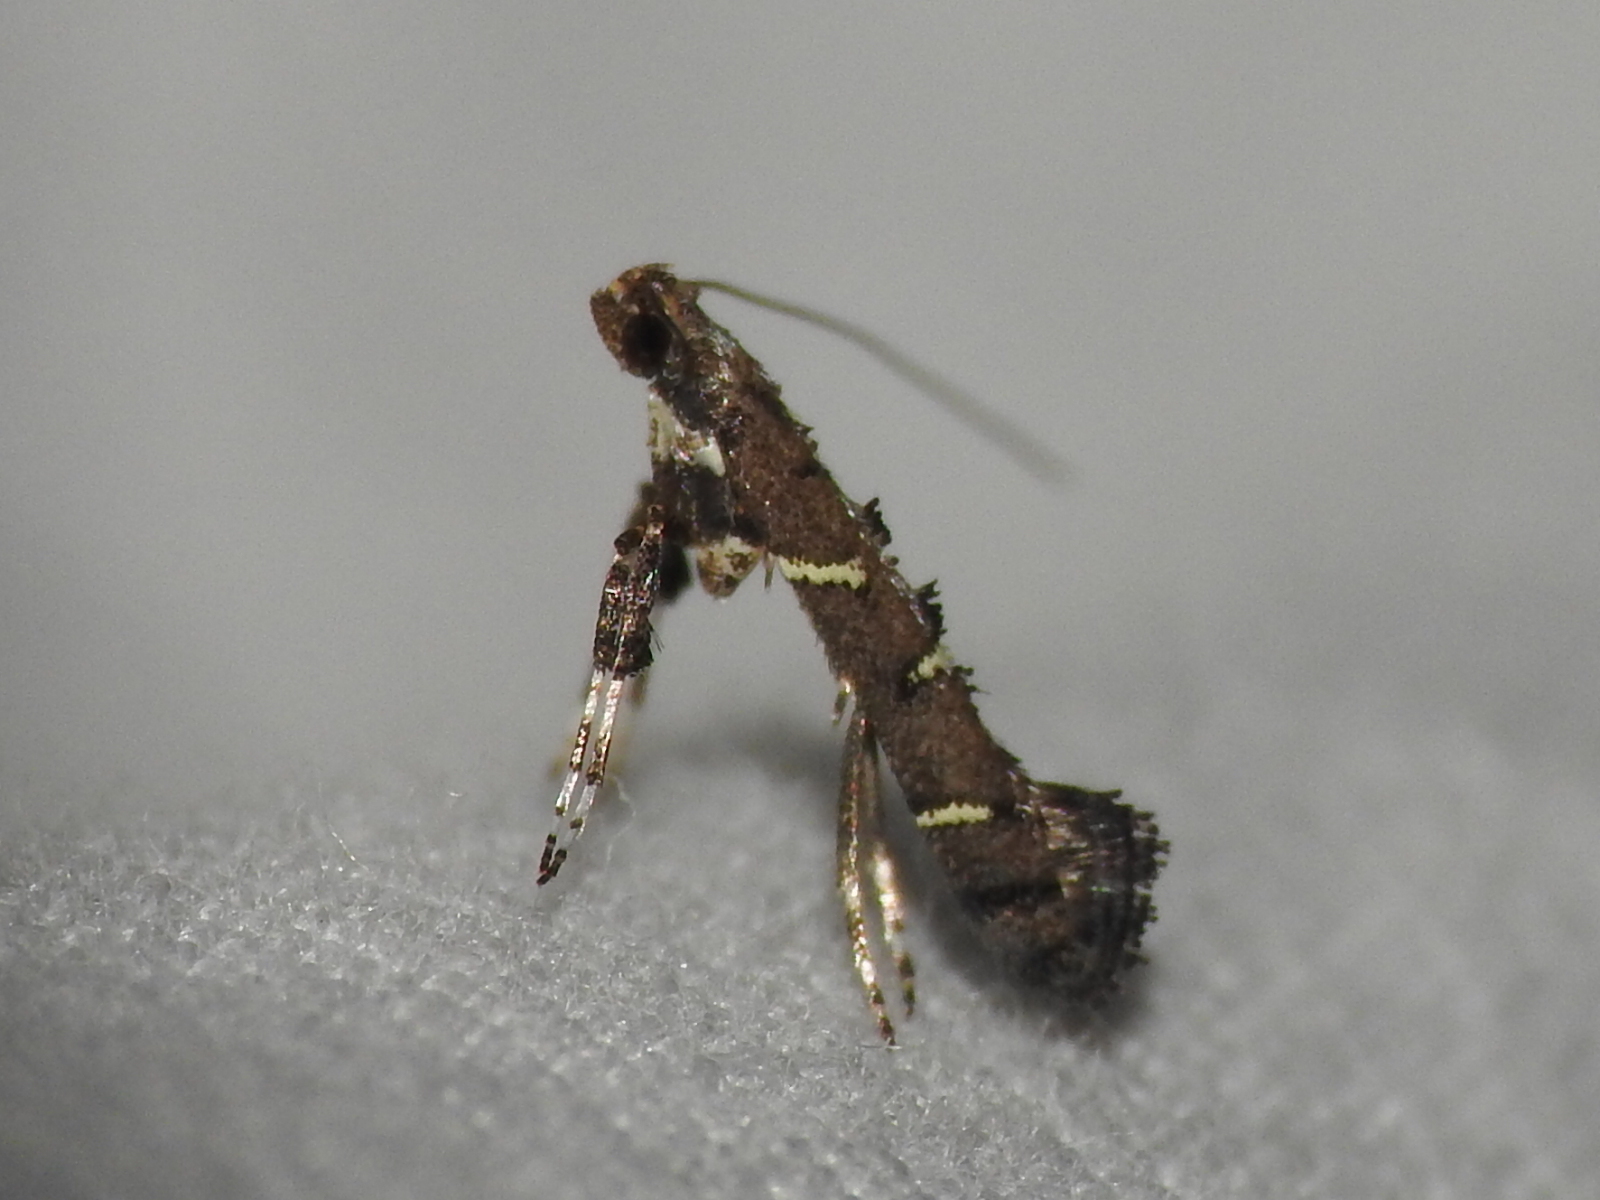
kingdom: Animalia
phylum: Arthropoda
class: Insecta
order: Lepidoptera
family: Gracillariidae
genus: Caloptilia
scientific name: Caloptilia triadicae
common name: Tallow leaf roller
